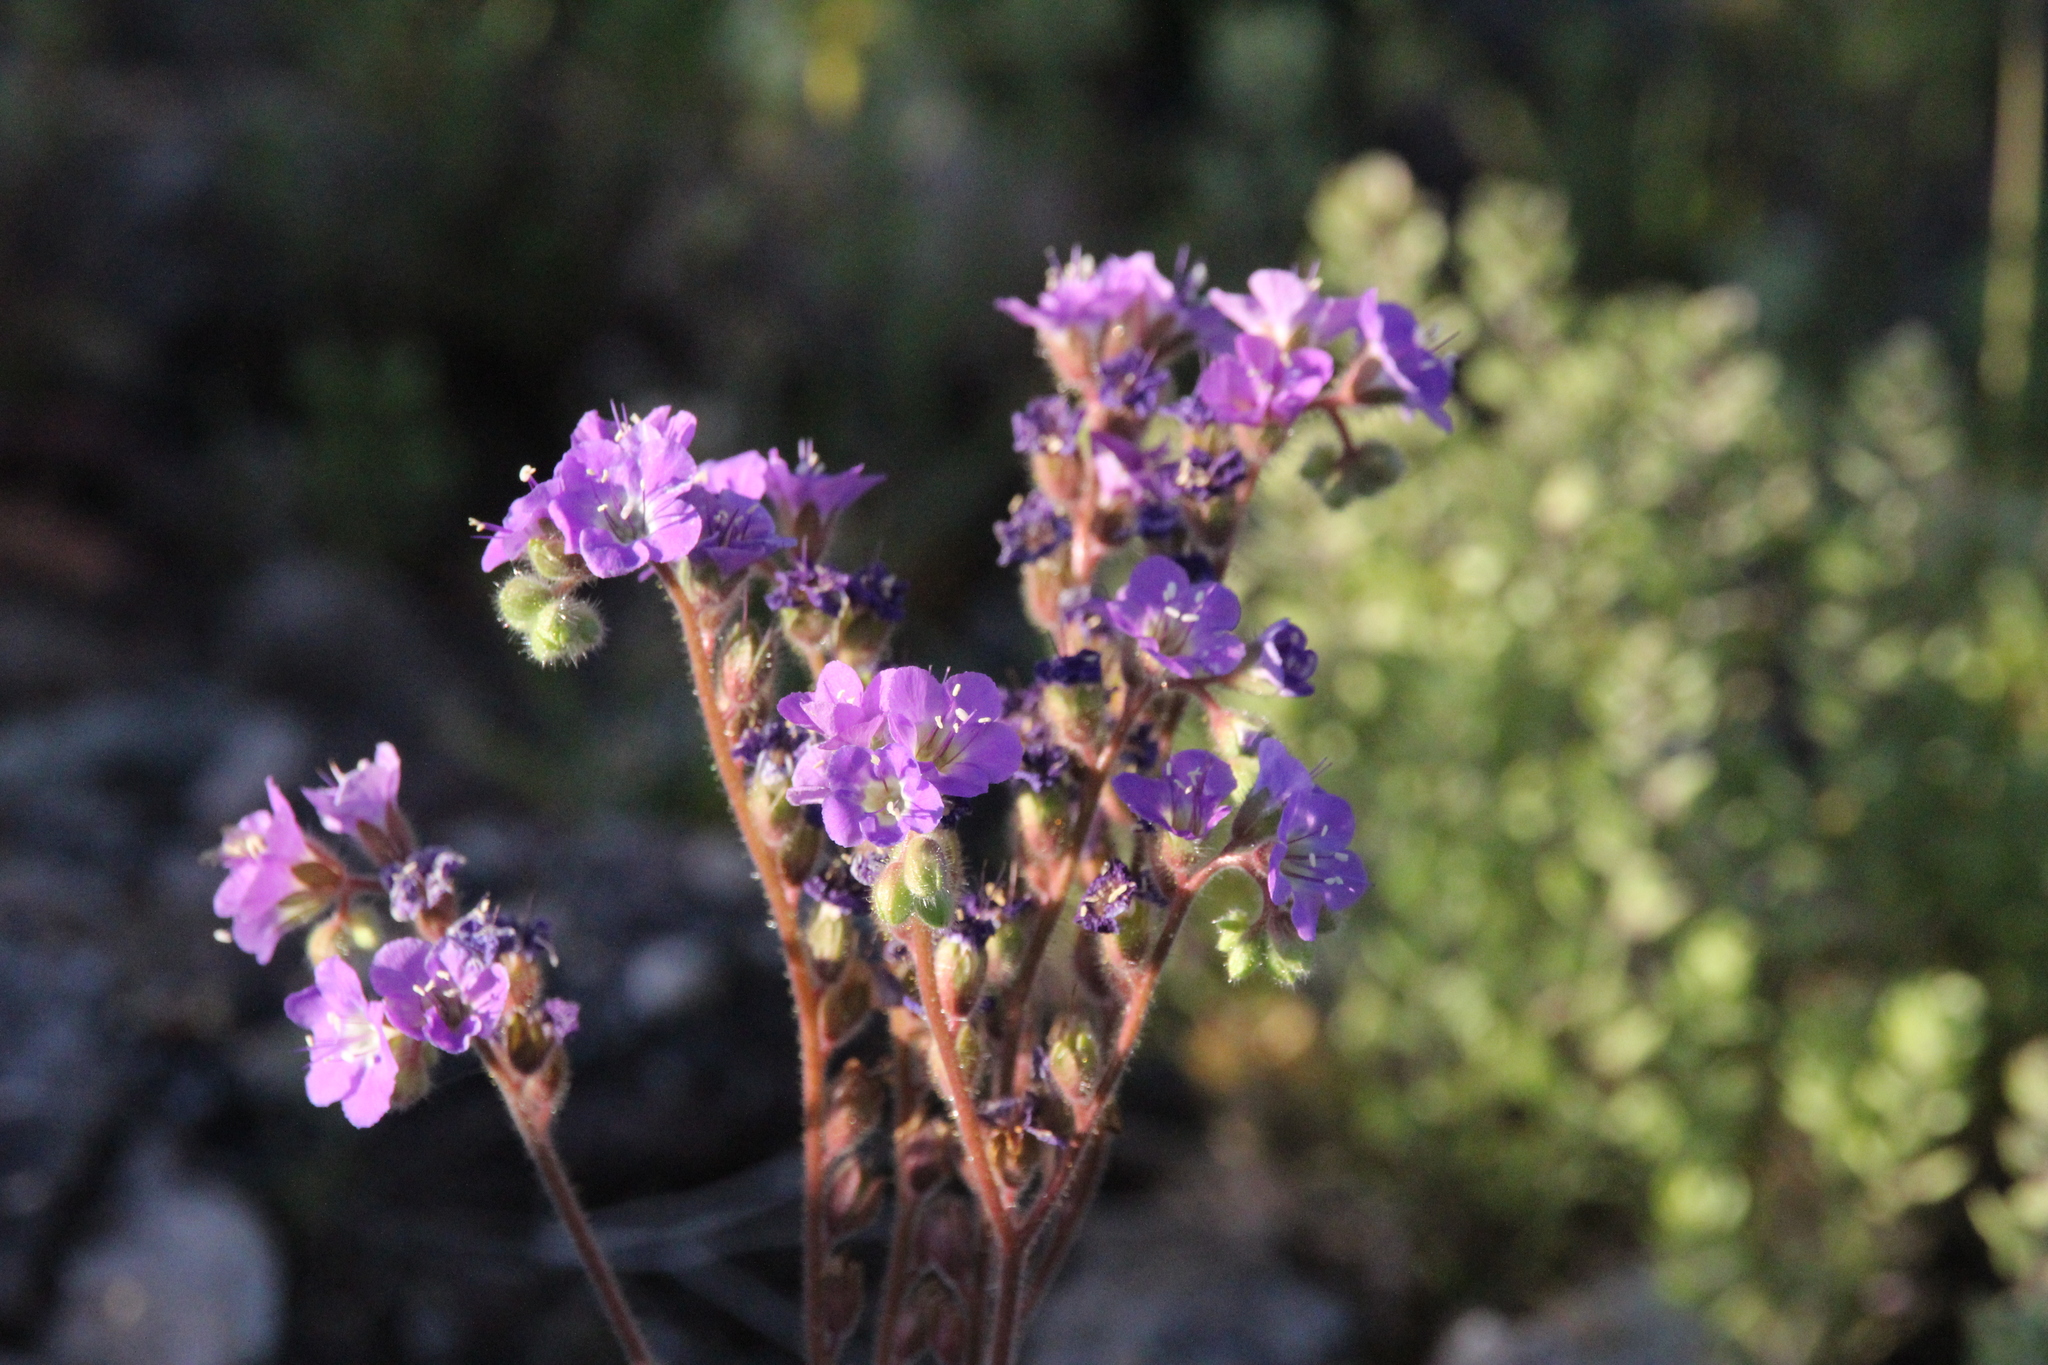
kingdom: Plantae
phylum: Tracheophyta
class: Magnoliopsida
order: Boraginales
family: Hydrophyllaceae
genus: Phacelia
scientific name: Phacelia crenulata
